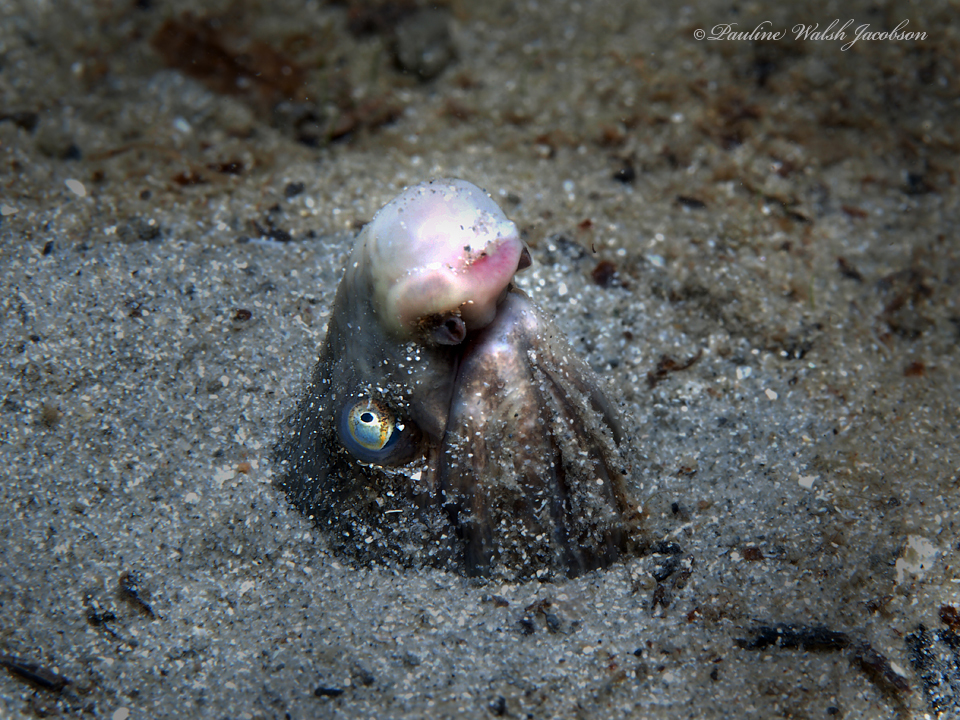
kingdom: Animalia
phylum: Chordata
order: Anguilliformes
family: Ophichthidae
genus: Bascanichthys
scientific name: Bascanichthys bascanium
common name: Sooty eel
